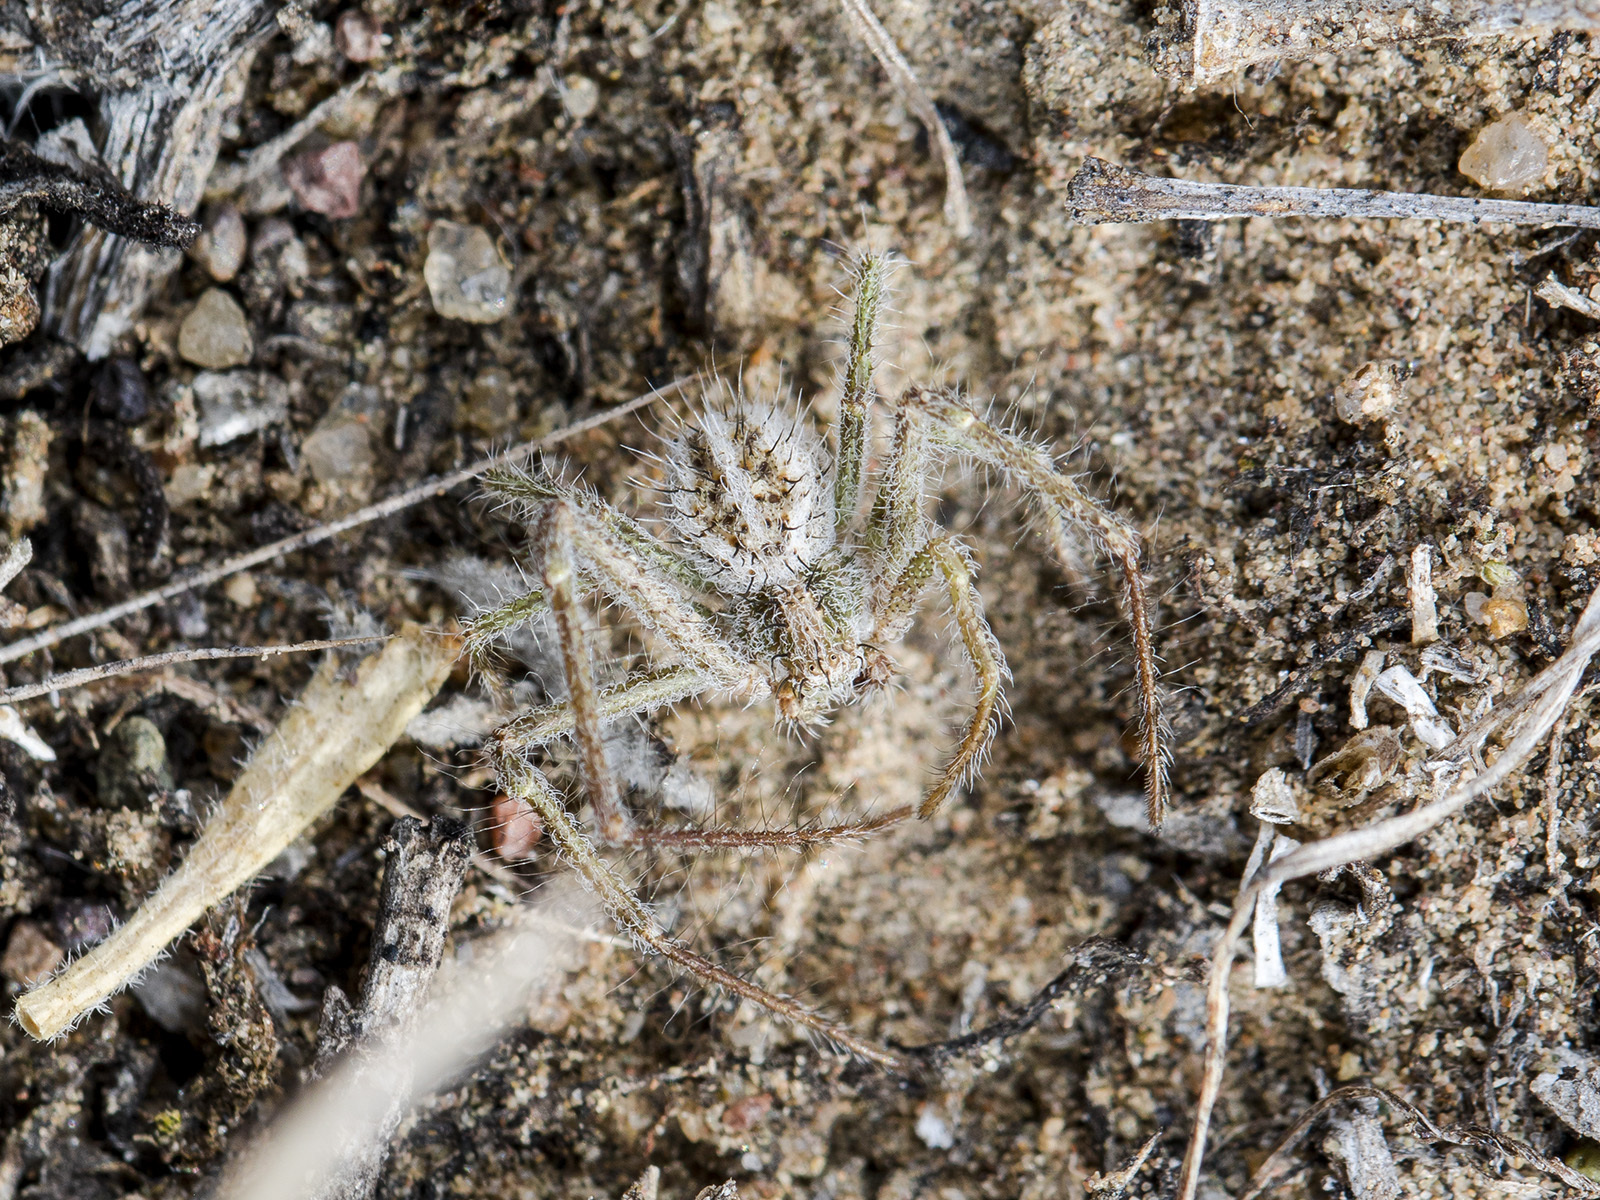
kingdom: Animalia
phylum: Arthropoda
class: Arachnida
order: Araneae
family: Thomisidae
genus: Heriaeus
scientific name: Heriaeus horridus
